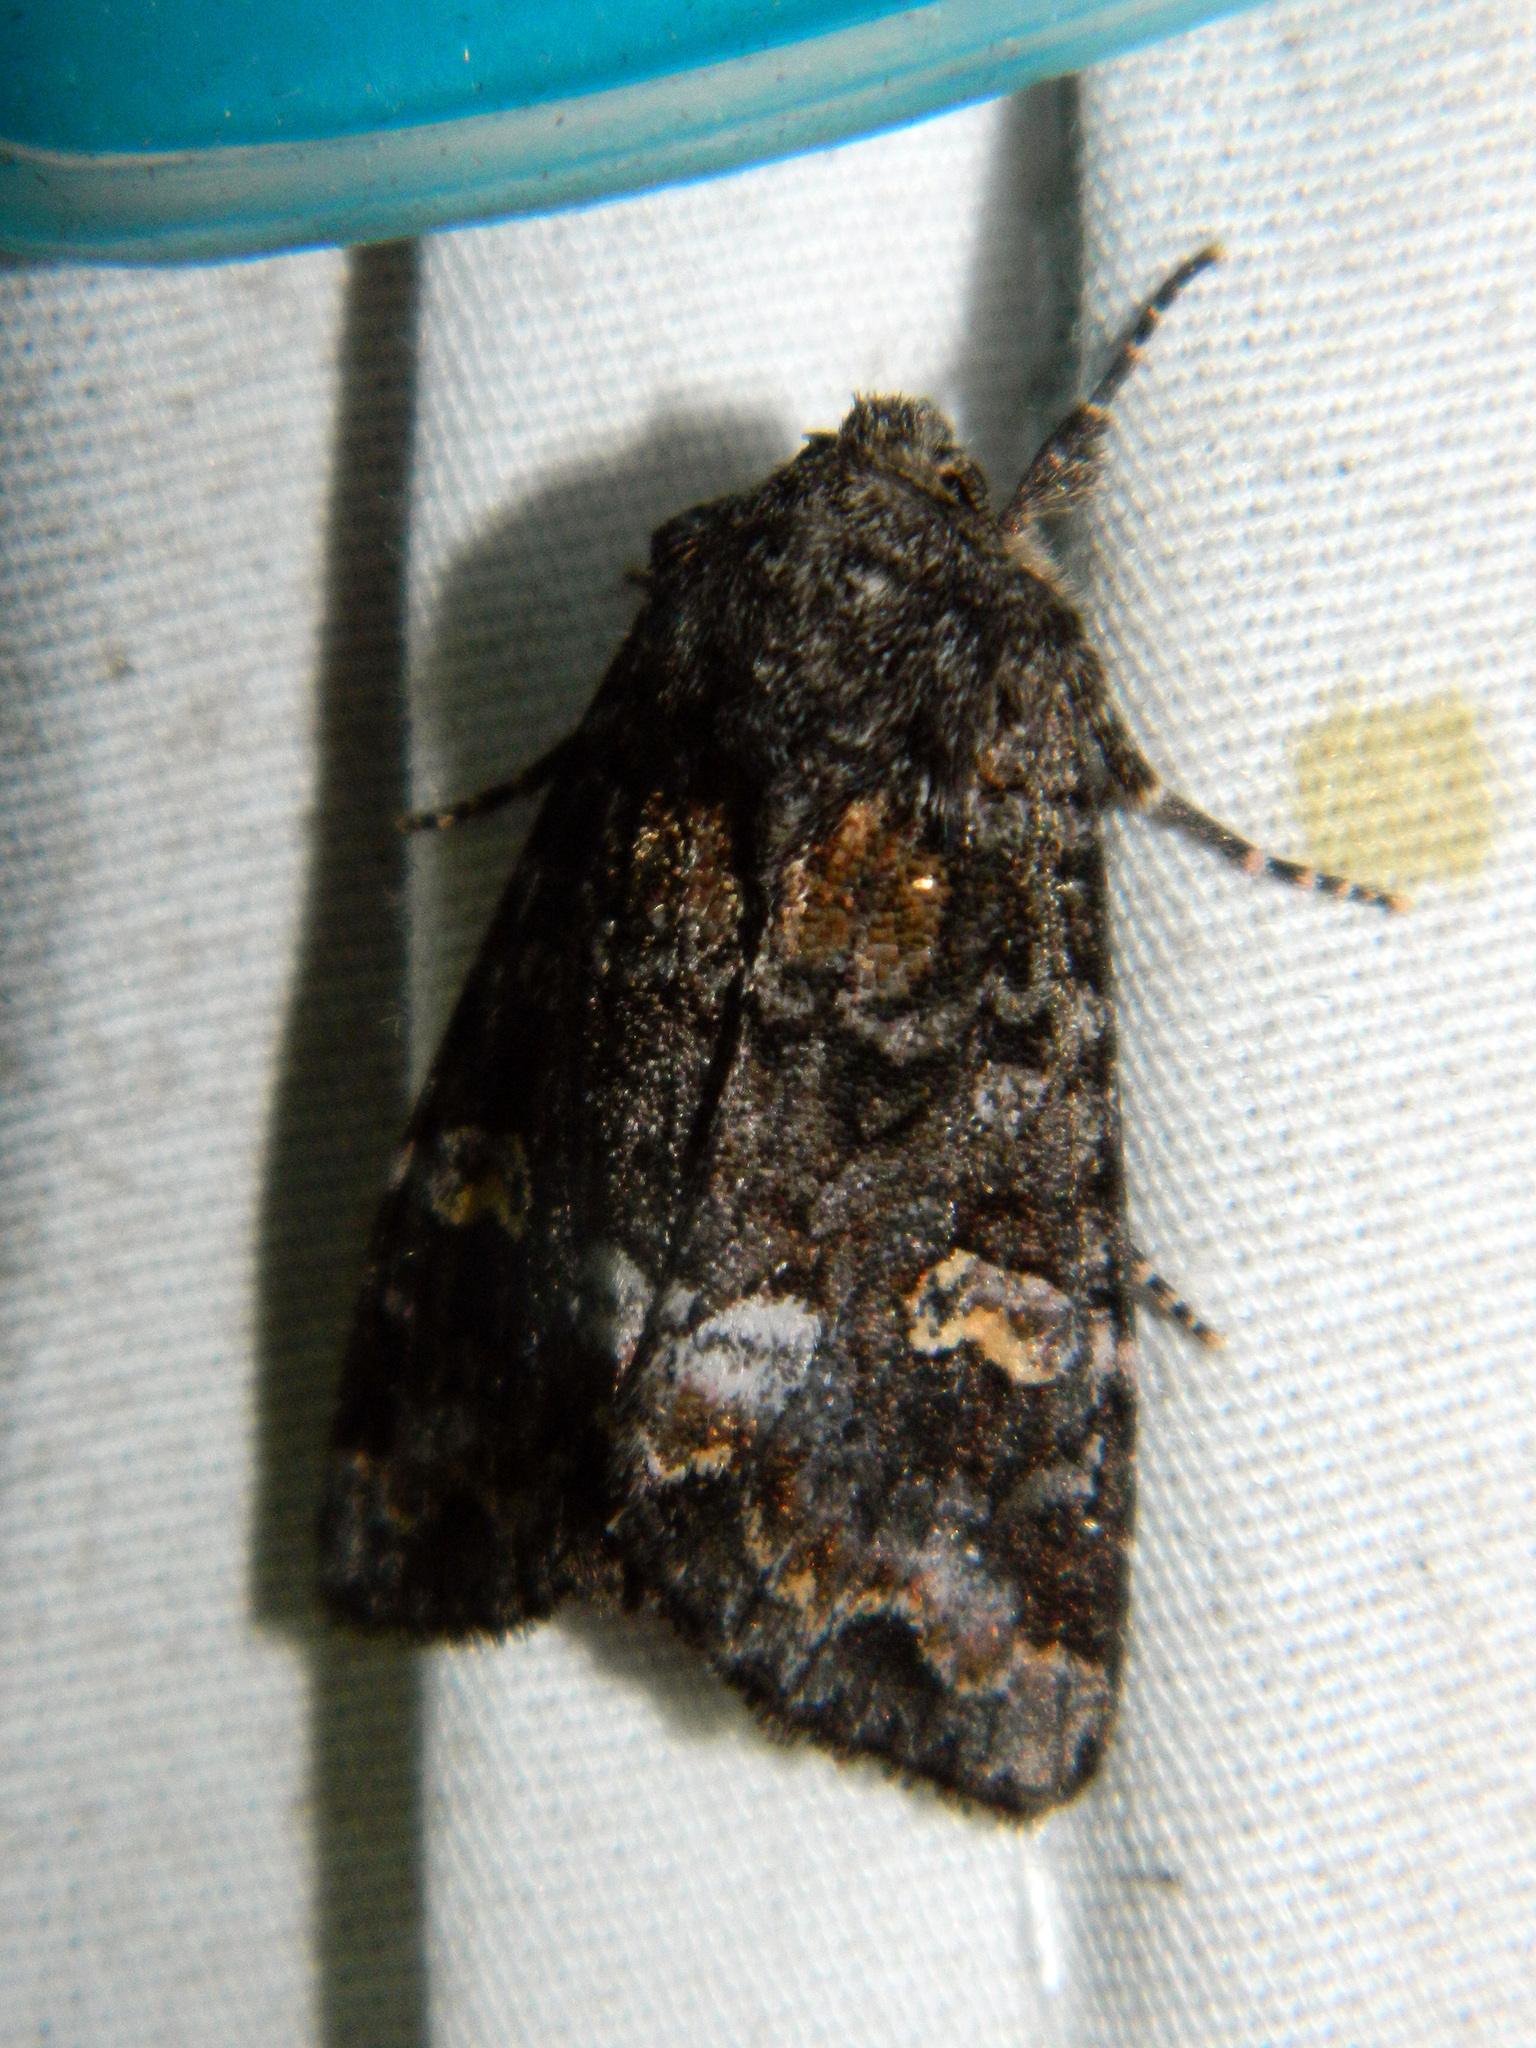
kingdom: Animalia
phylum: Arthropoda
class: Insecta
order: Lepidoptera
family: Noctuidae
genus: Spiramater
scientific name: Spiramater lutra
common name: Otter spiramater moth
